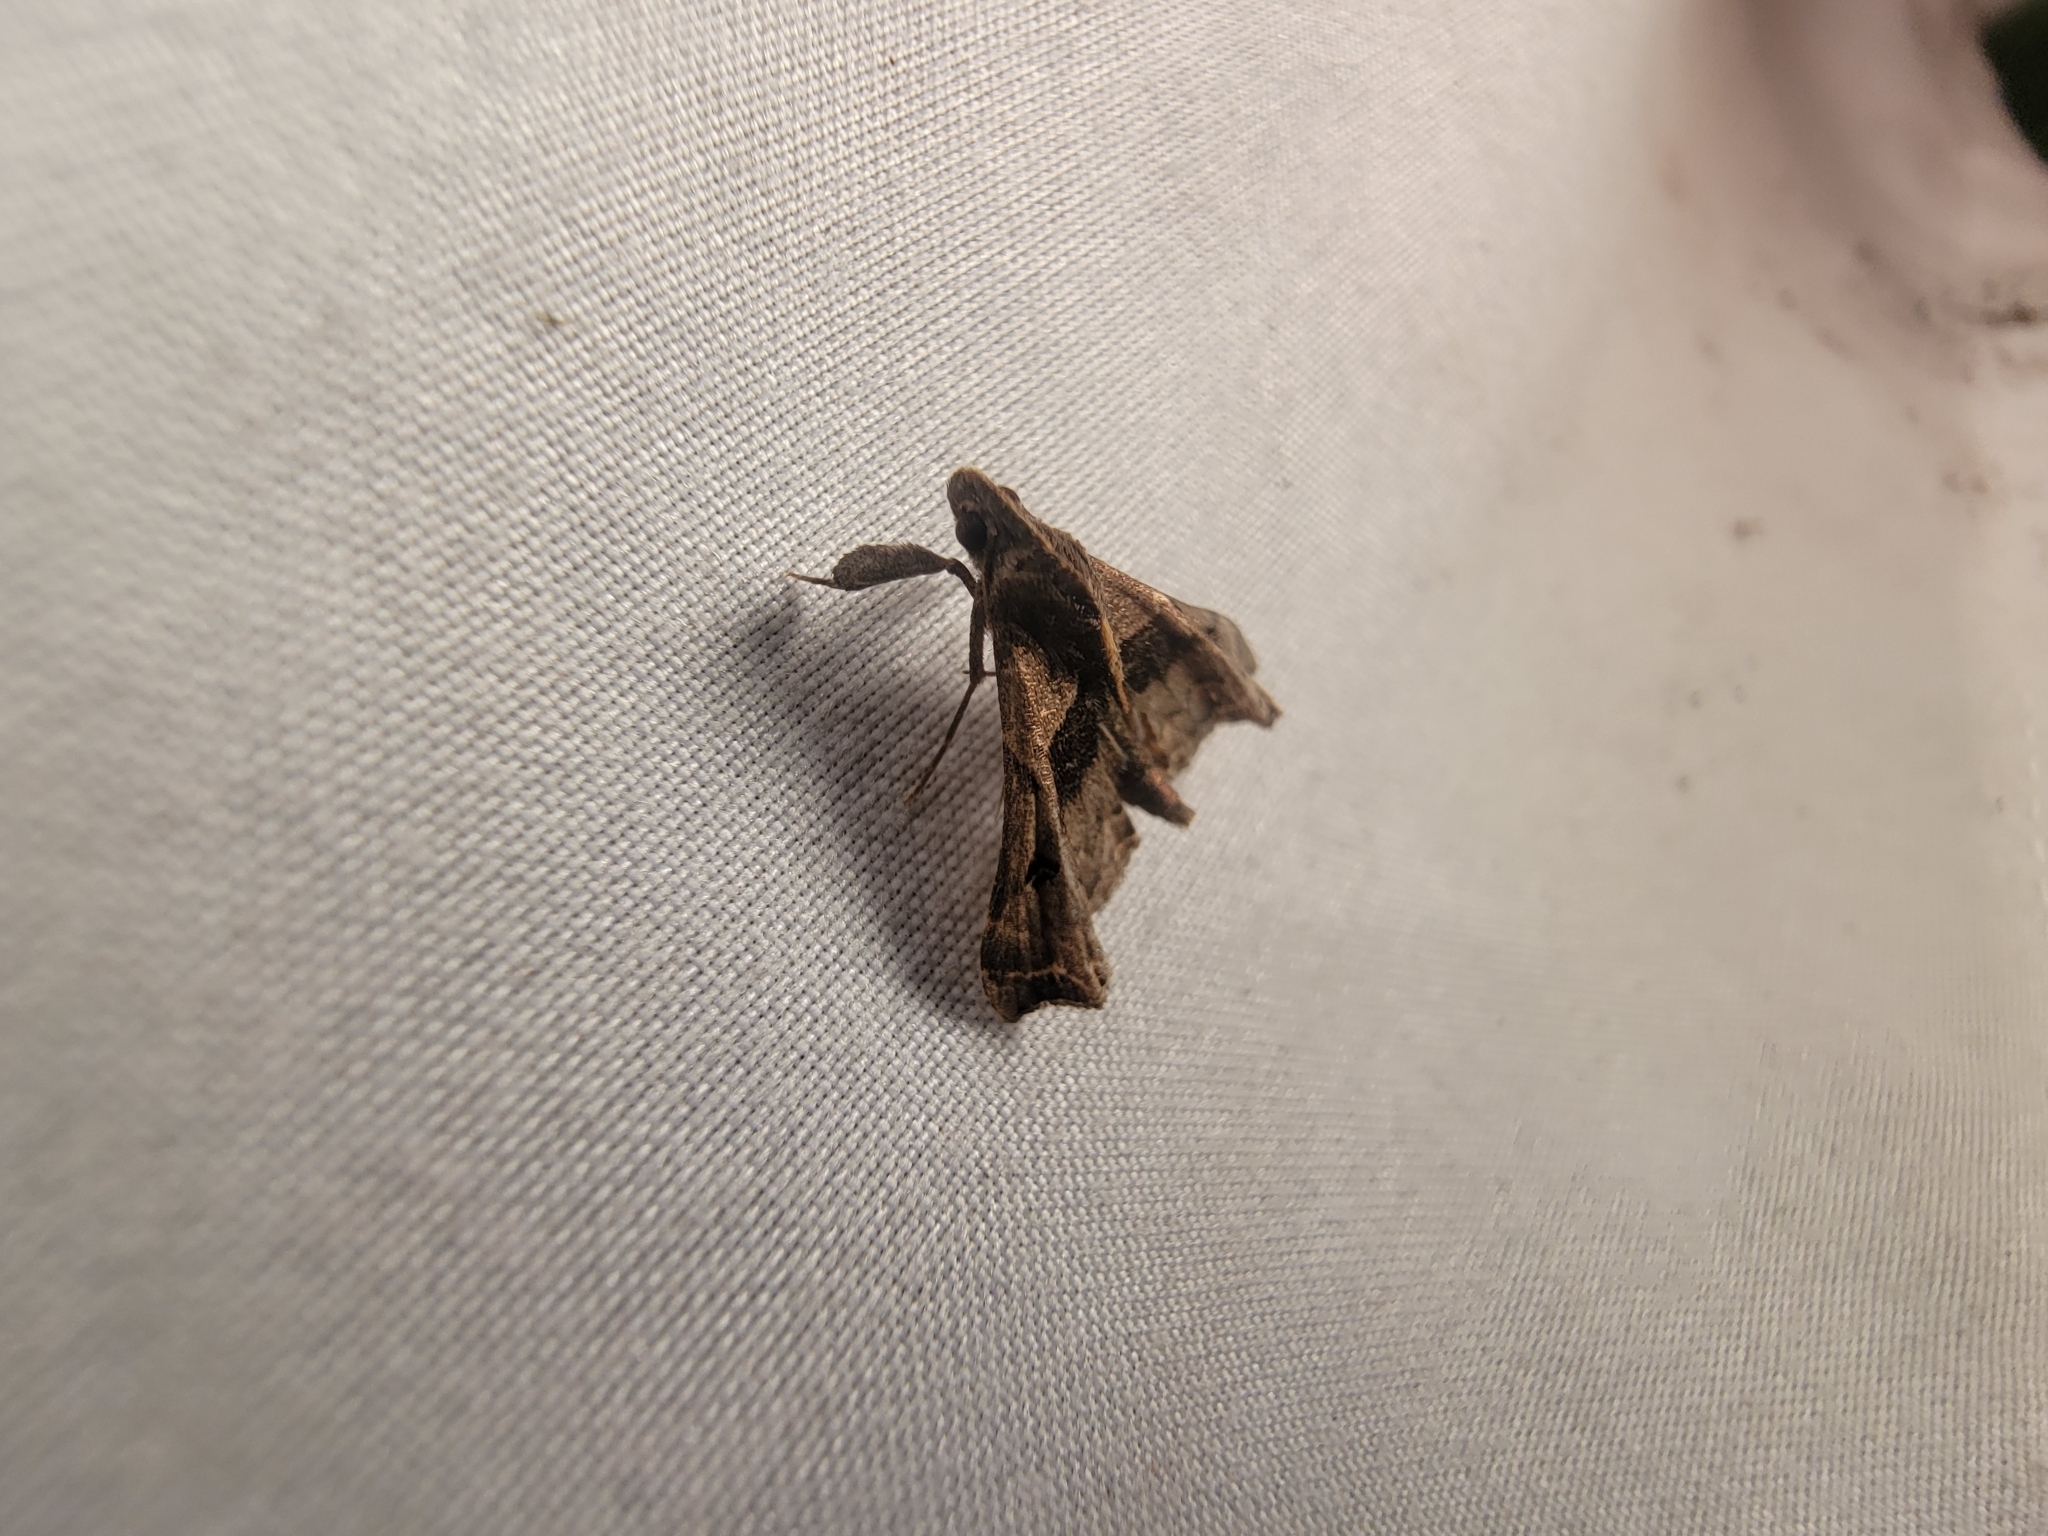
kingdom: Animalia
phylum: Arthropoda
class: Insecta
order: Lepidoptera
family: Erebidae
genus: Palthis
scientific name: Palthis asopialis
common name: Faint-spotted palthis moth
